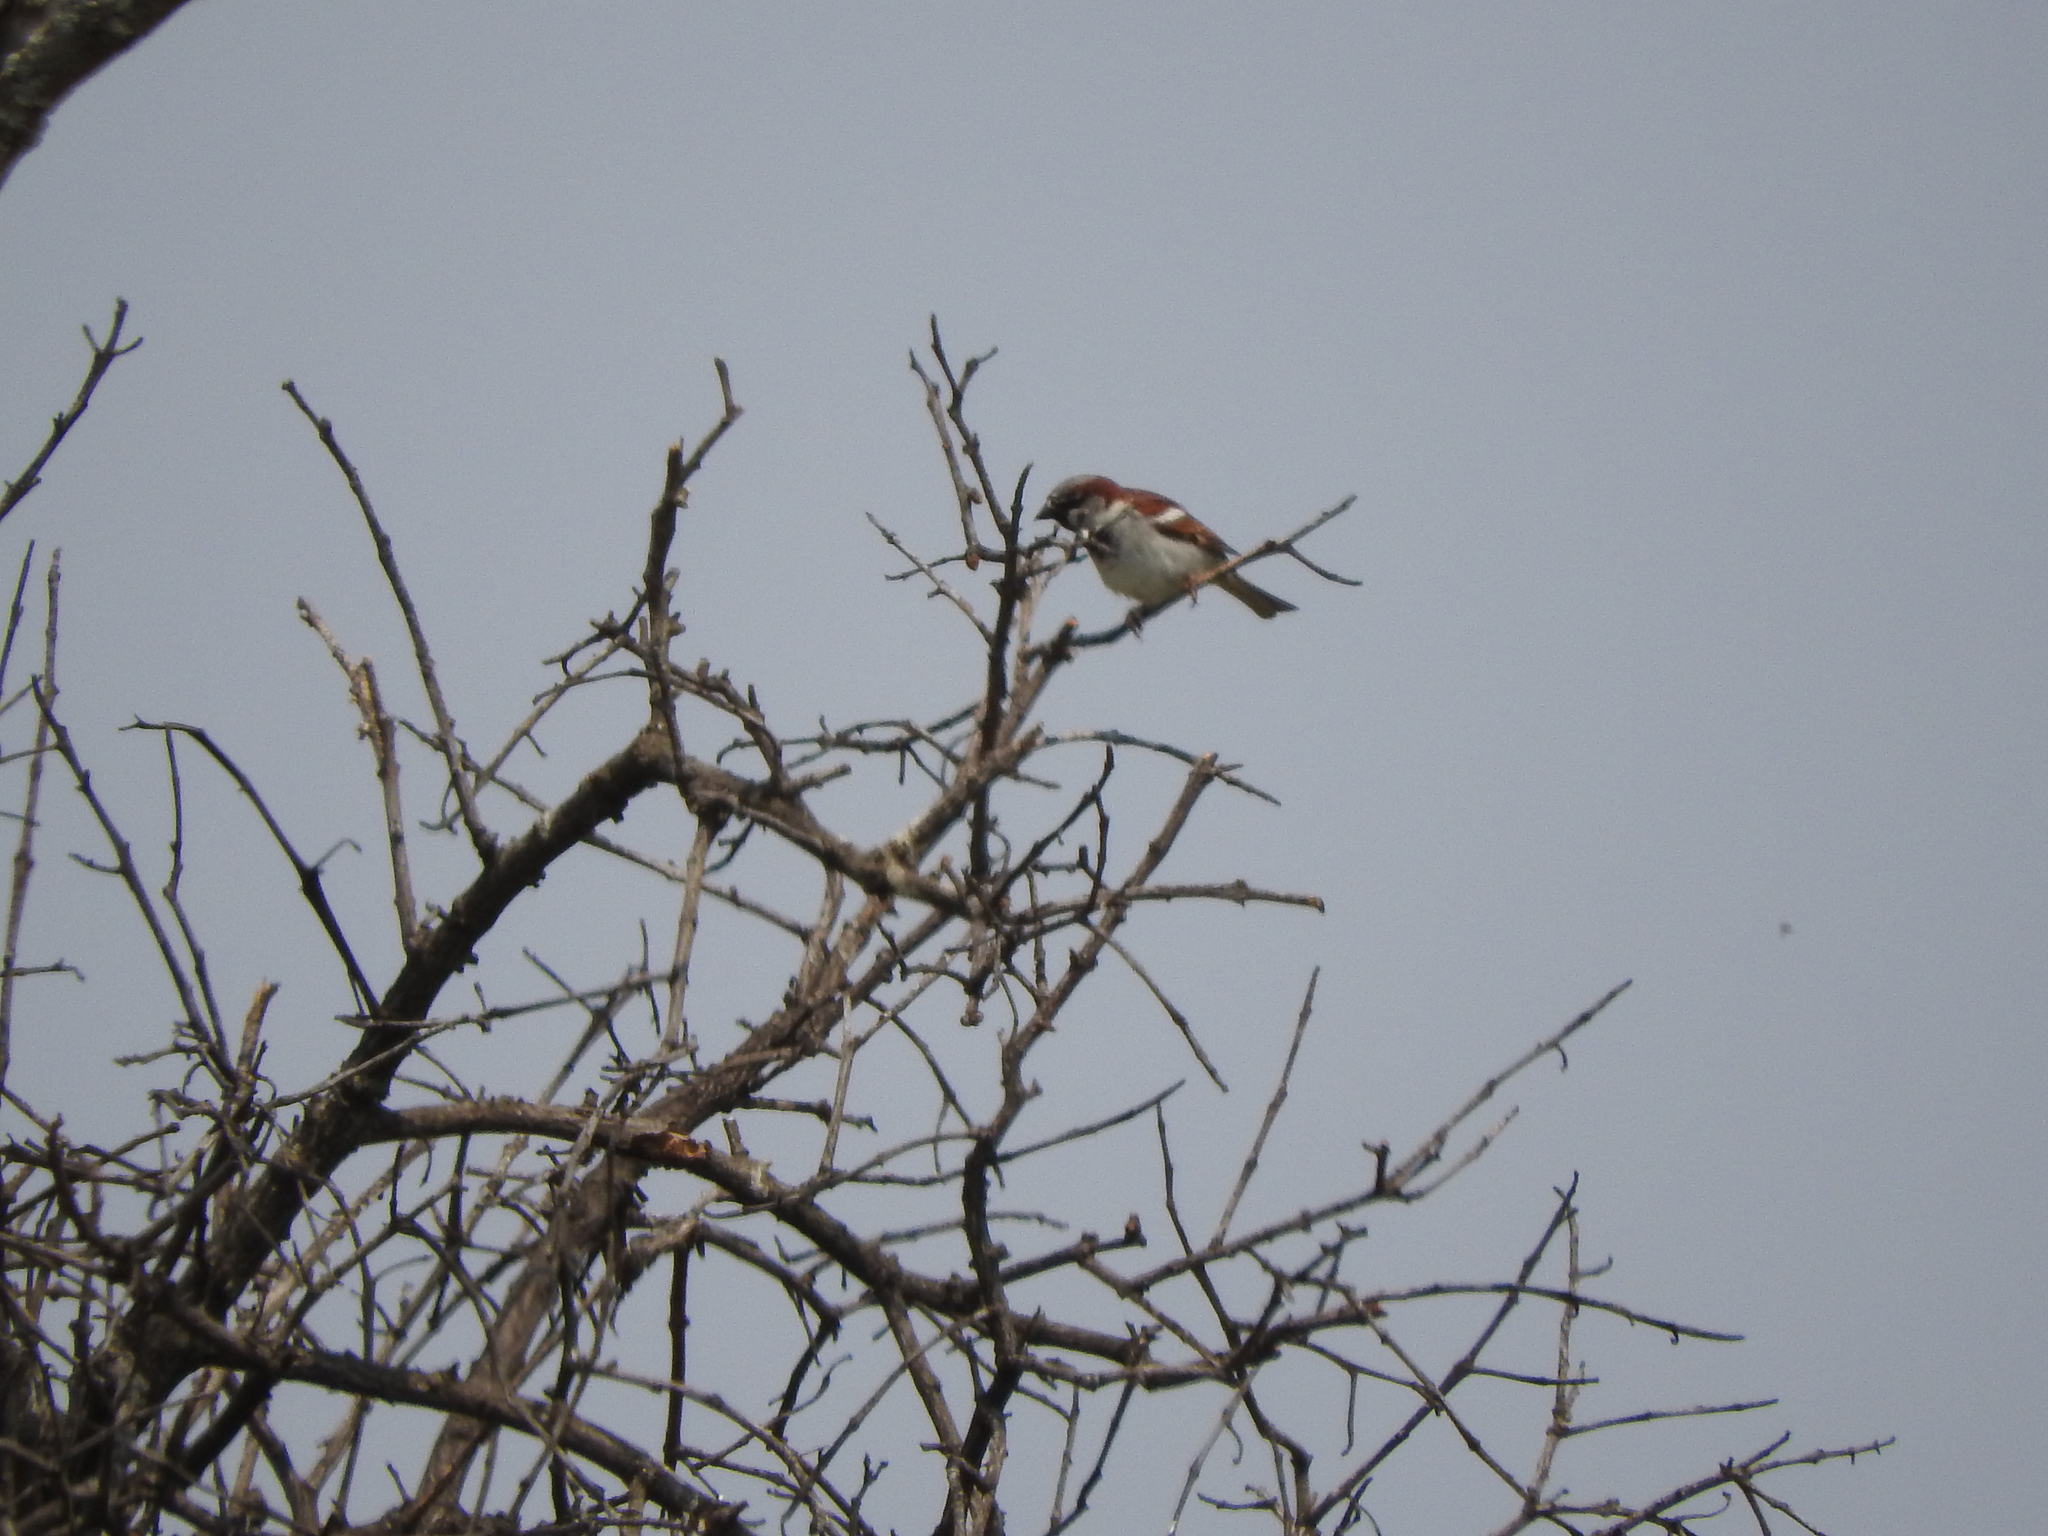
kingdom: Animalia
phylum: Chordata
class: Aves
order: Passeriformes
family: Passeridae
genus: Passer
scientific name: Passer domesticus
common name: House sparrow
